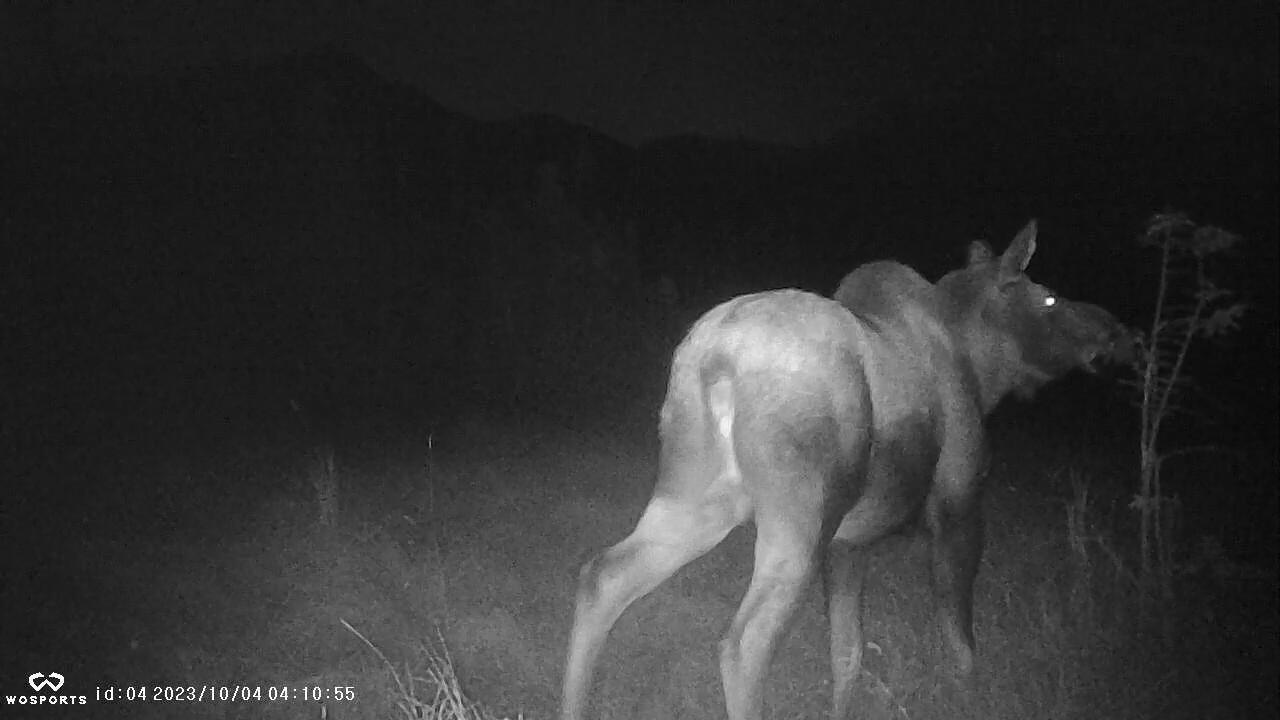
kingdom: Animalia
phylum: Chordata
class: Mammalia
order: Artiodactyla
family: Cervidae
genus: Alces
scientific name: Alces alces
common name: Moose
